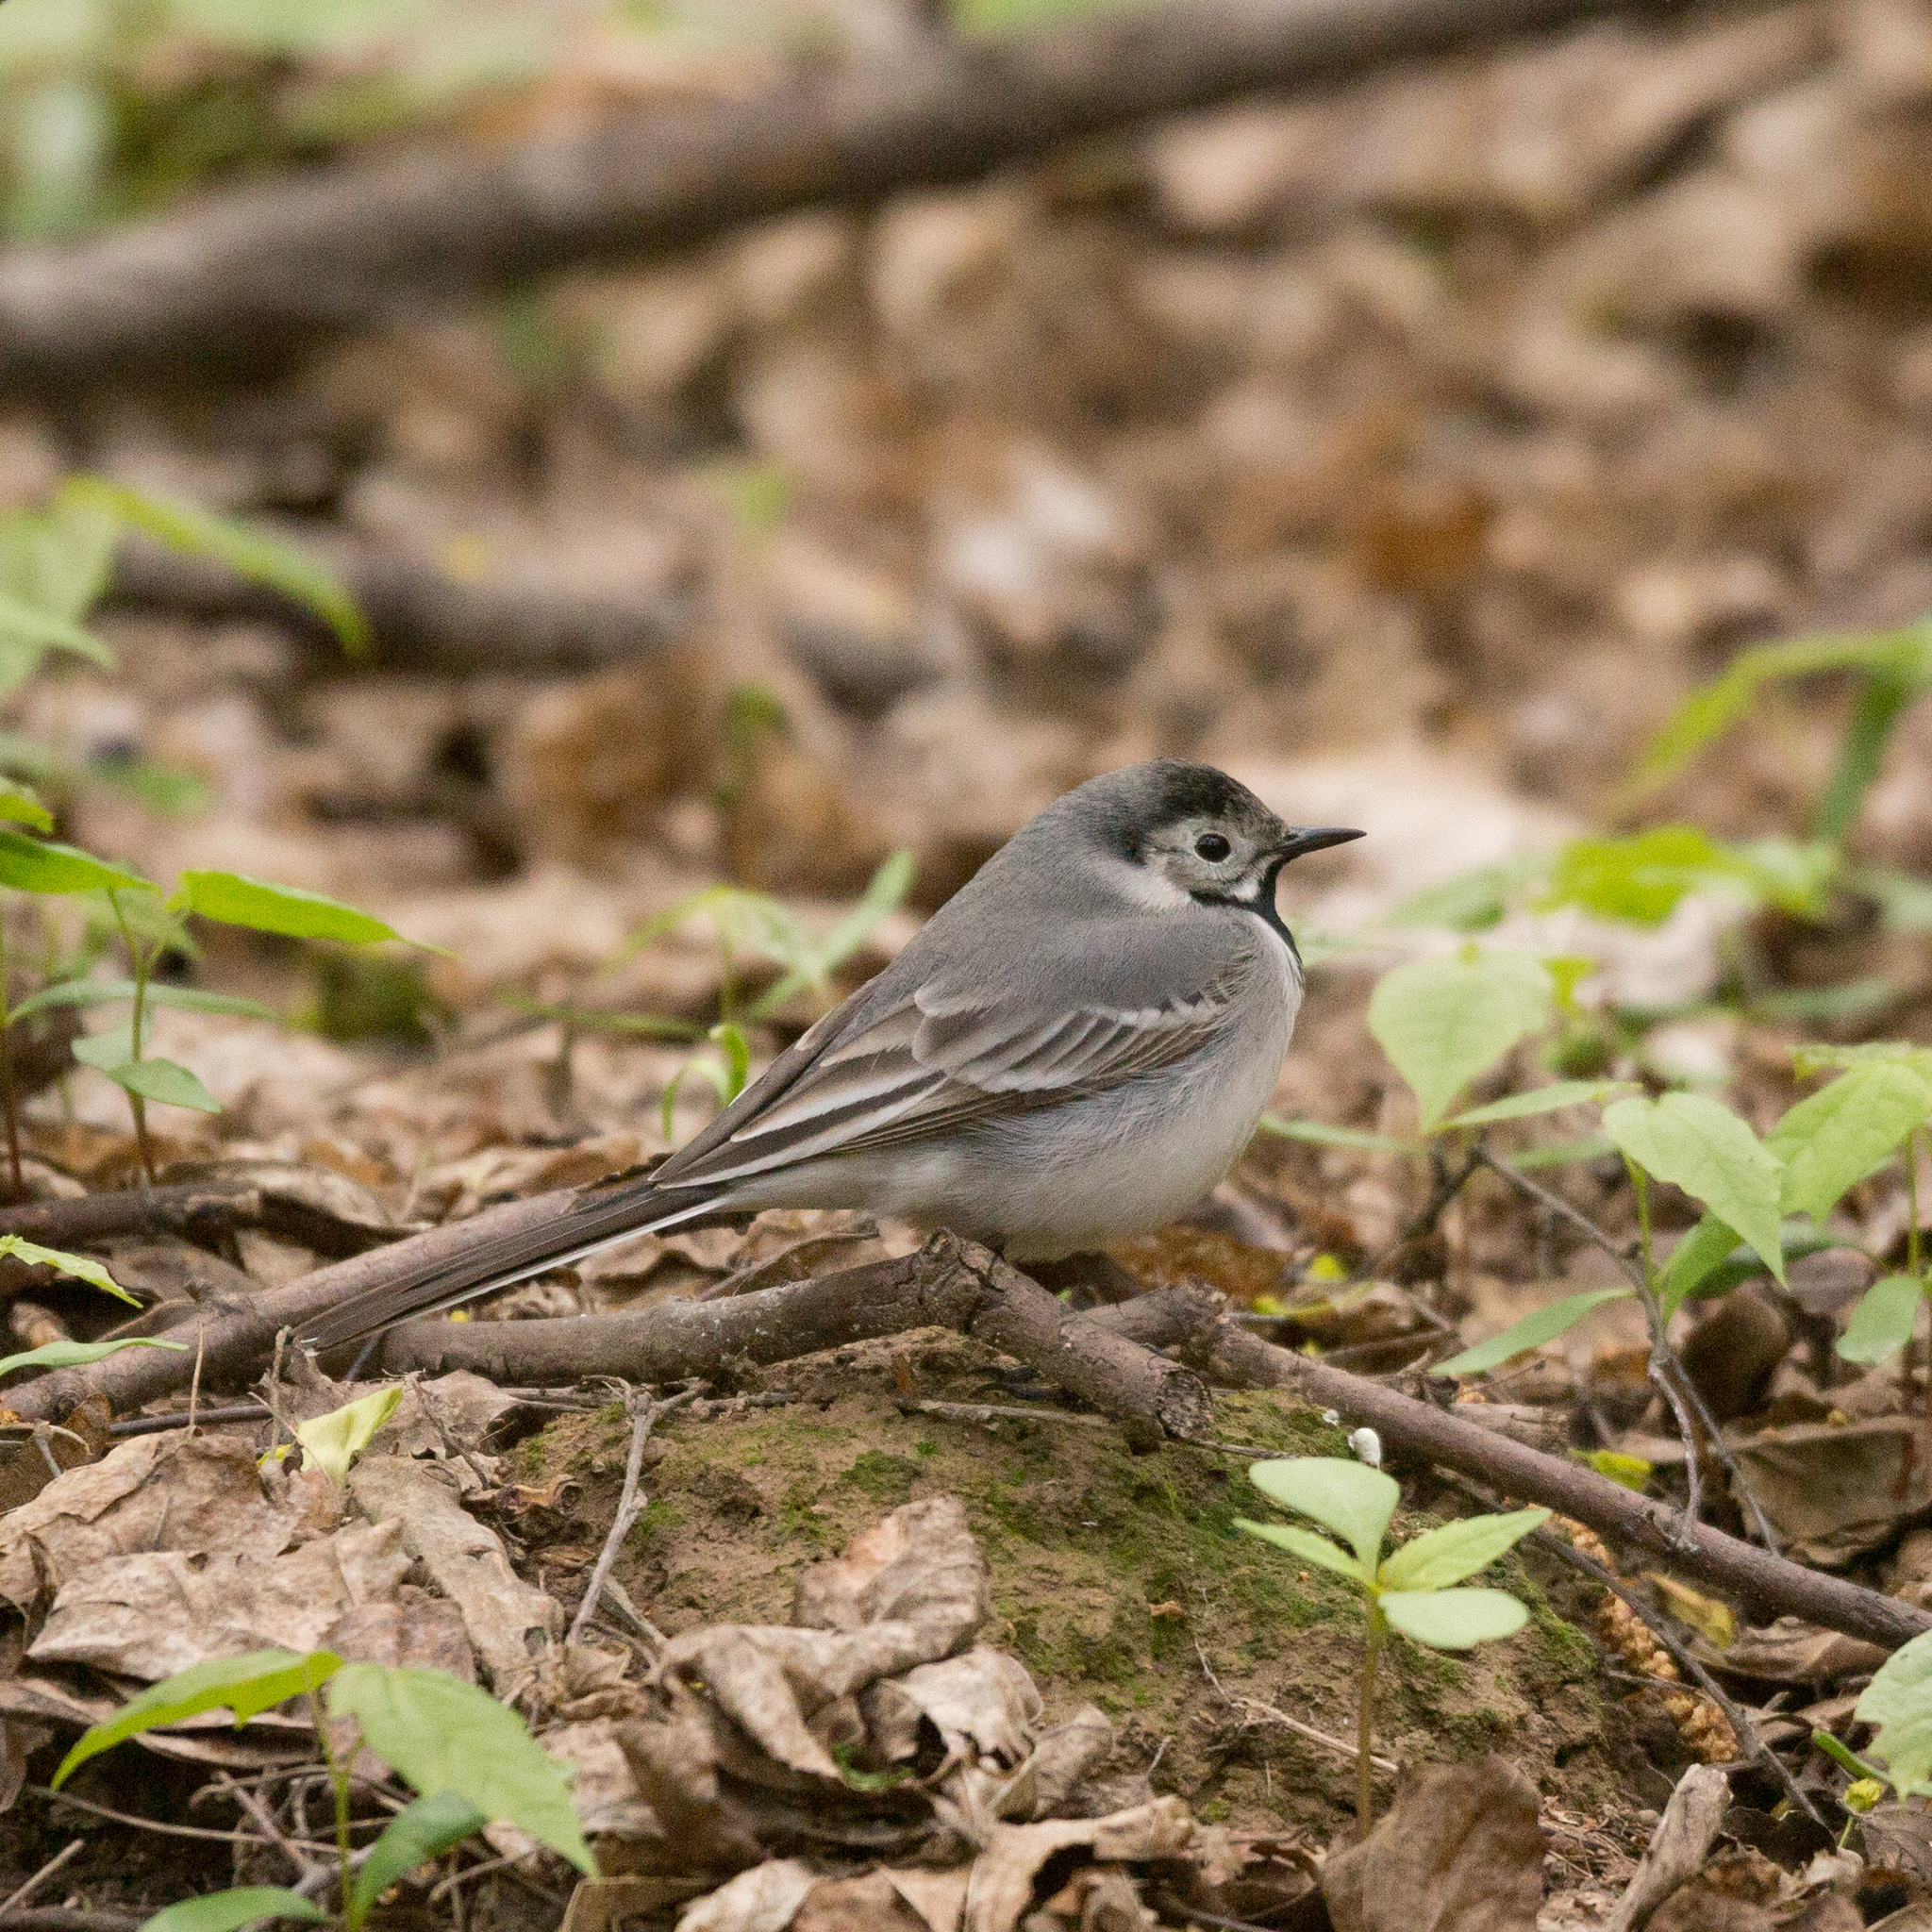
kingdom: Animalia
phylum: Chordata
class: Aves
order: Passeriformes
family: Motacillidae
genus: Motacilla
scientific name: Motacilla alba
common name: White wagtail
